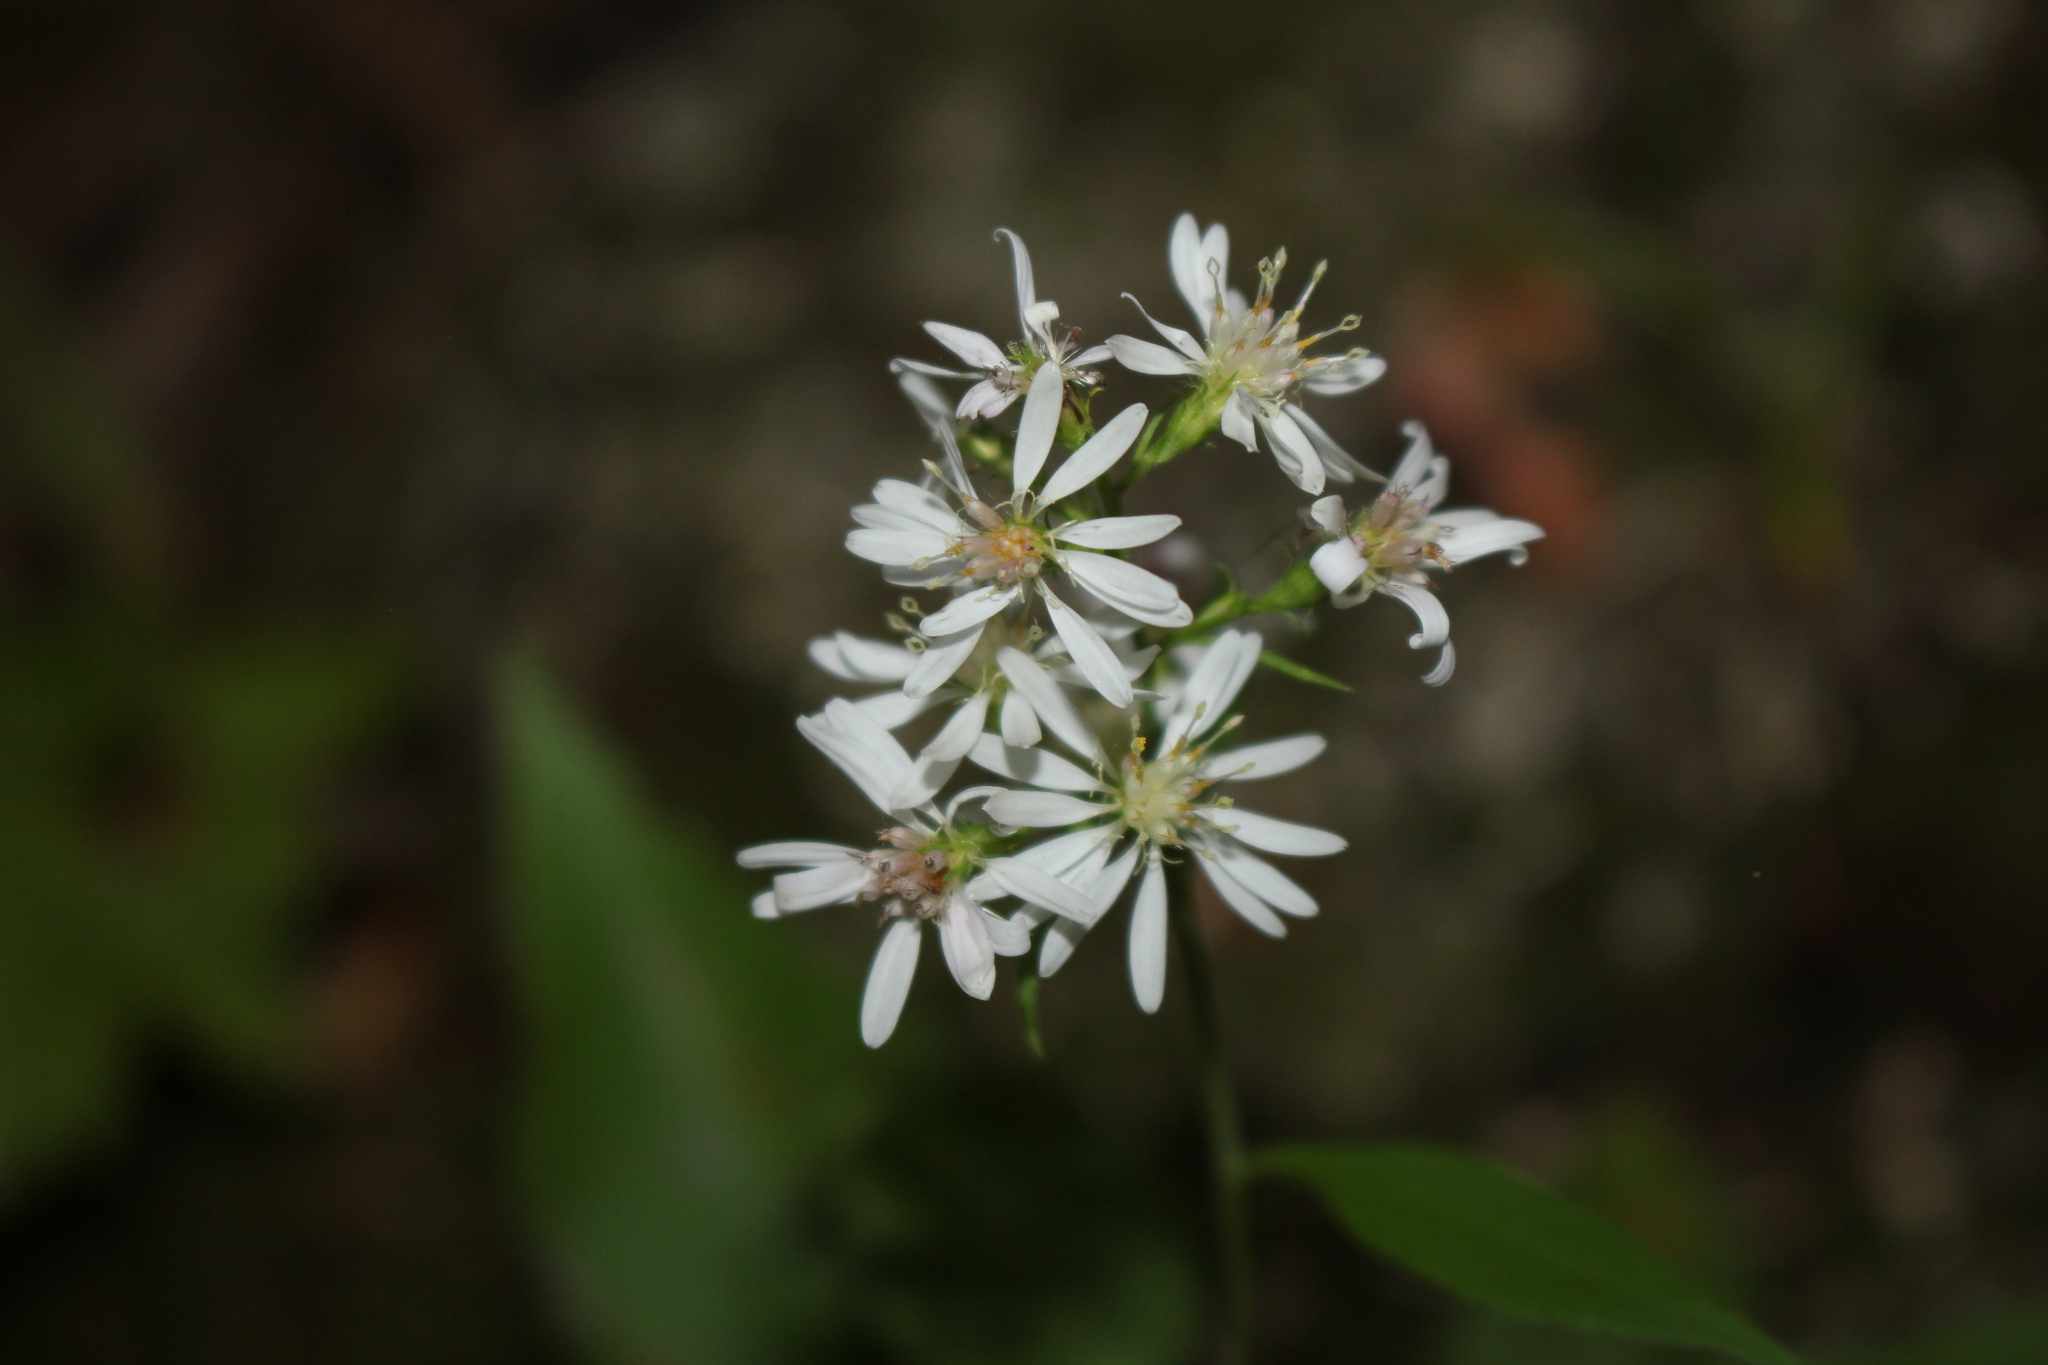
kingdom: Plantae
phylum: Tracheophyta
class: Magnoliopsida
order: Asterales
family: Asteraceae
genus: Symphyotrichum
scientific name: Symphyotrichum urophyllum
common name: Arrow-leaved aster
